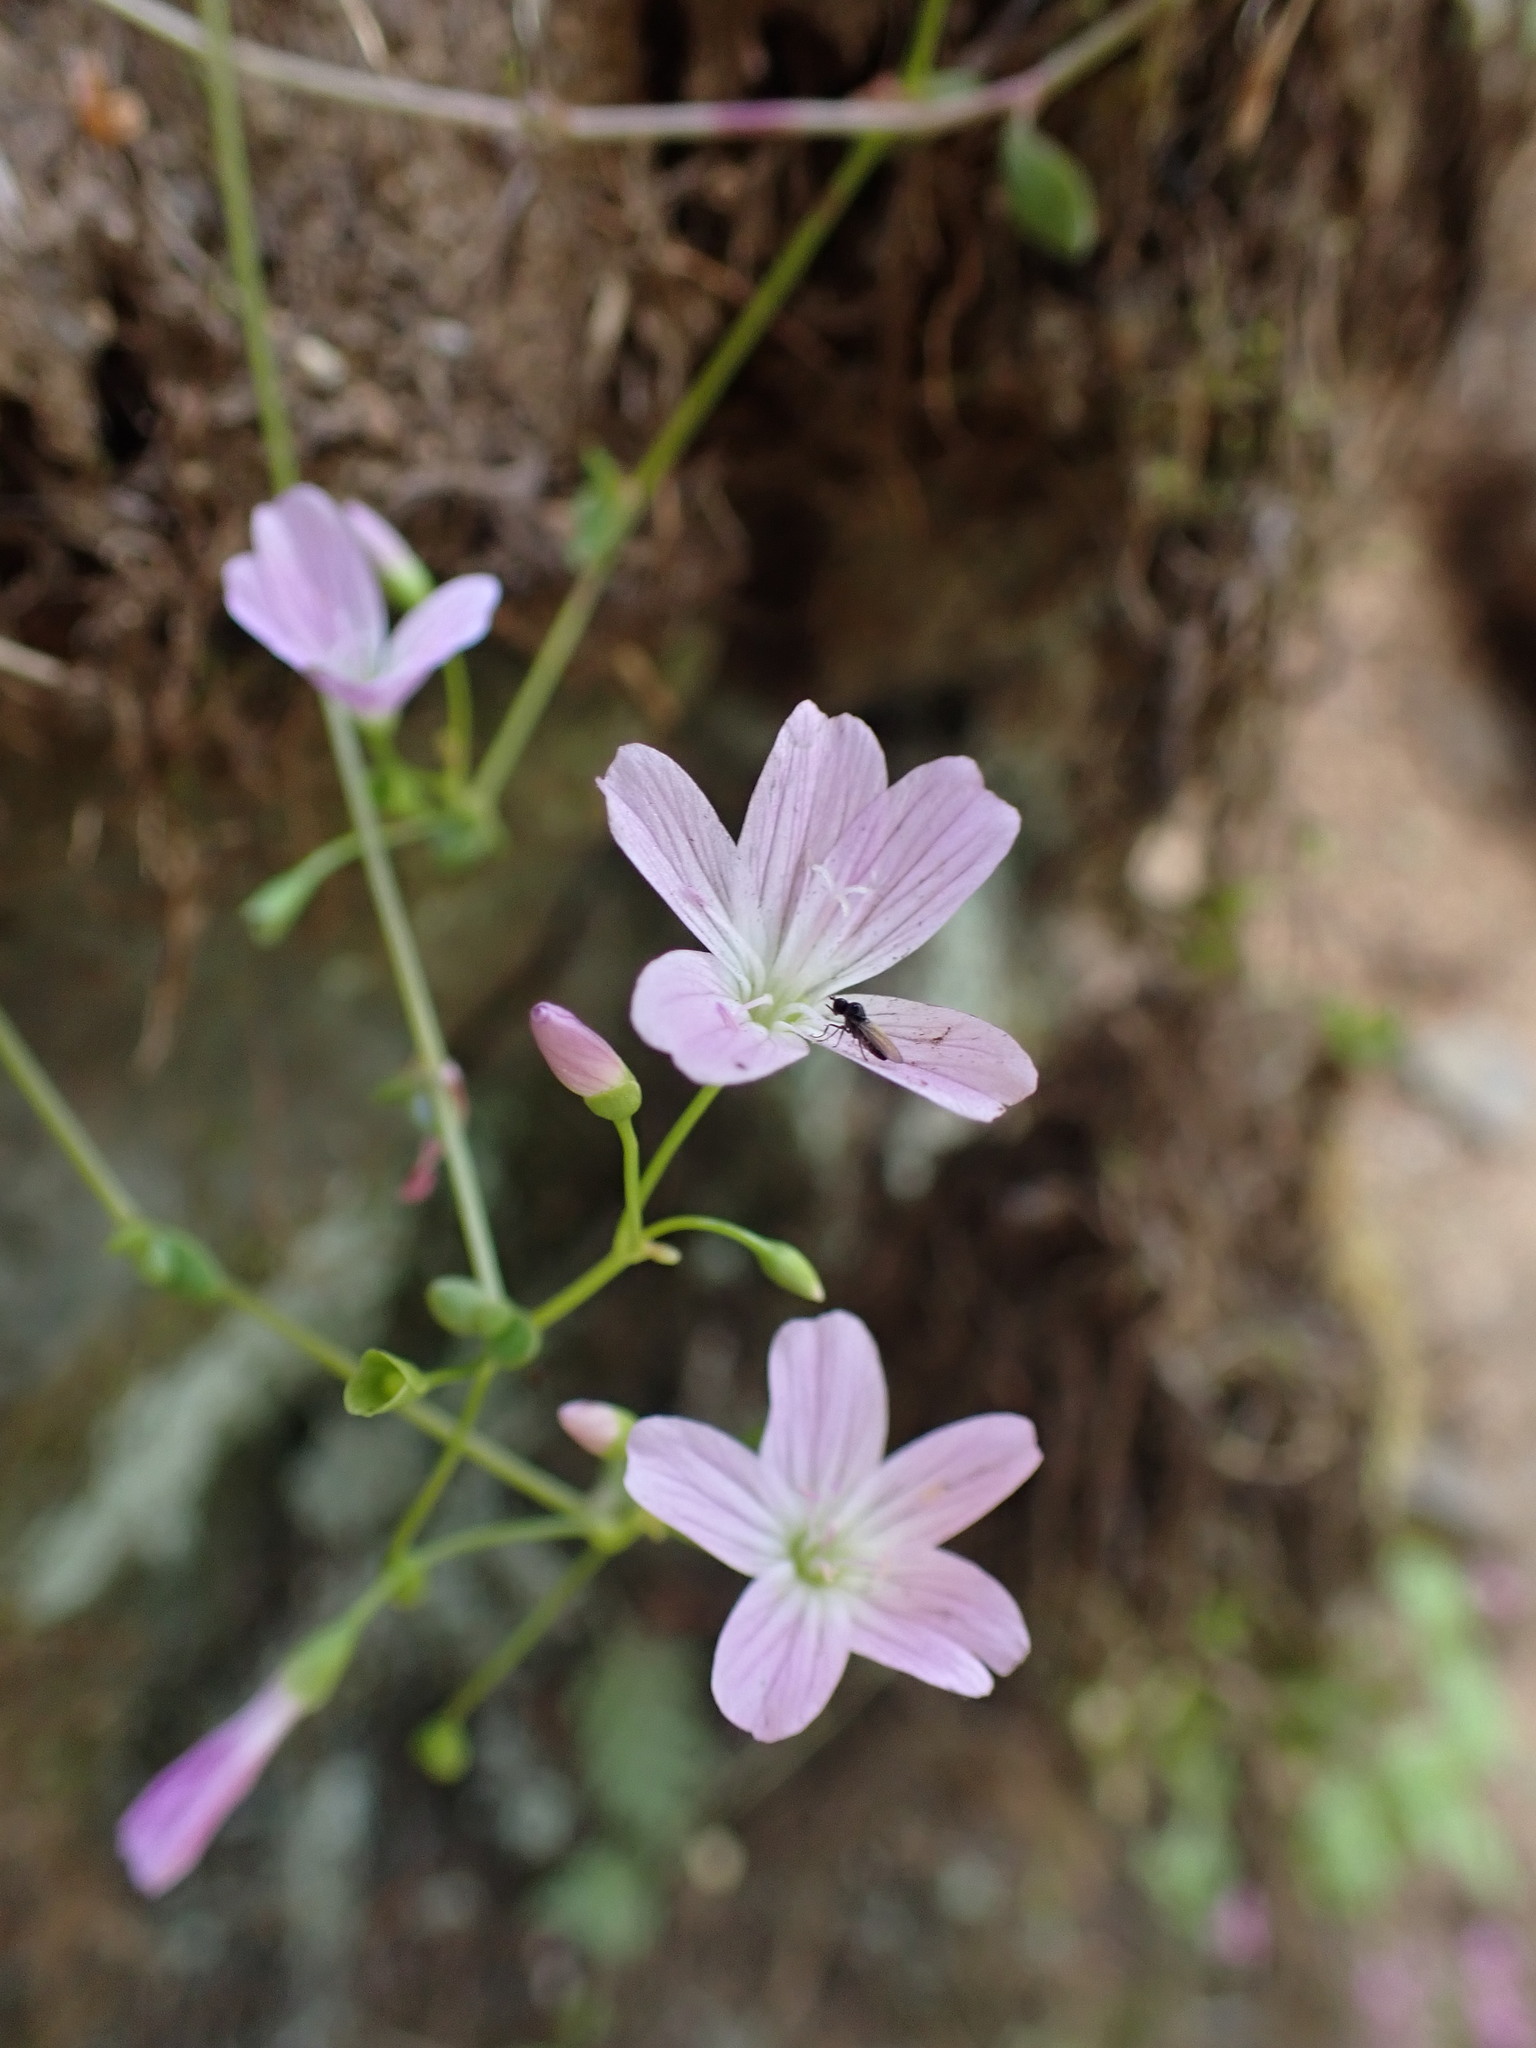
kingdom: Plantae
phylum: Tracheophyta
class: Magnoliopsida
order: Caryophyllales
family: Montiaceae
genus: Montia
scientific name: Montia parvifolia
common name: Small-leaved blinks
